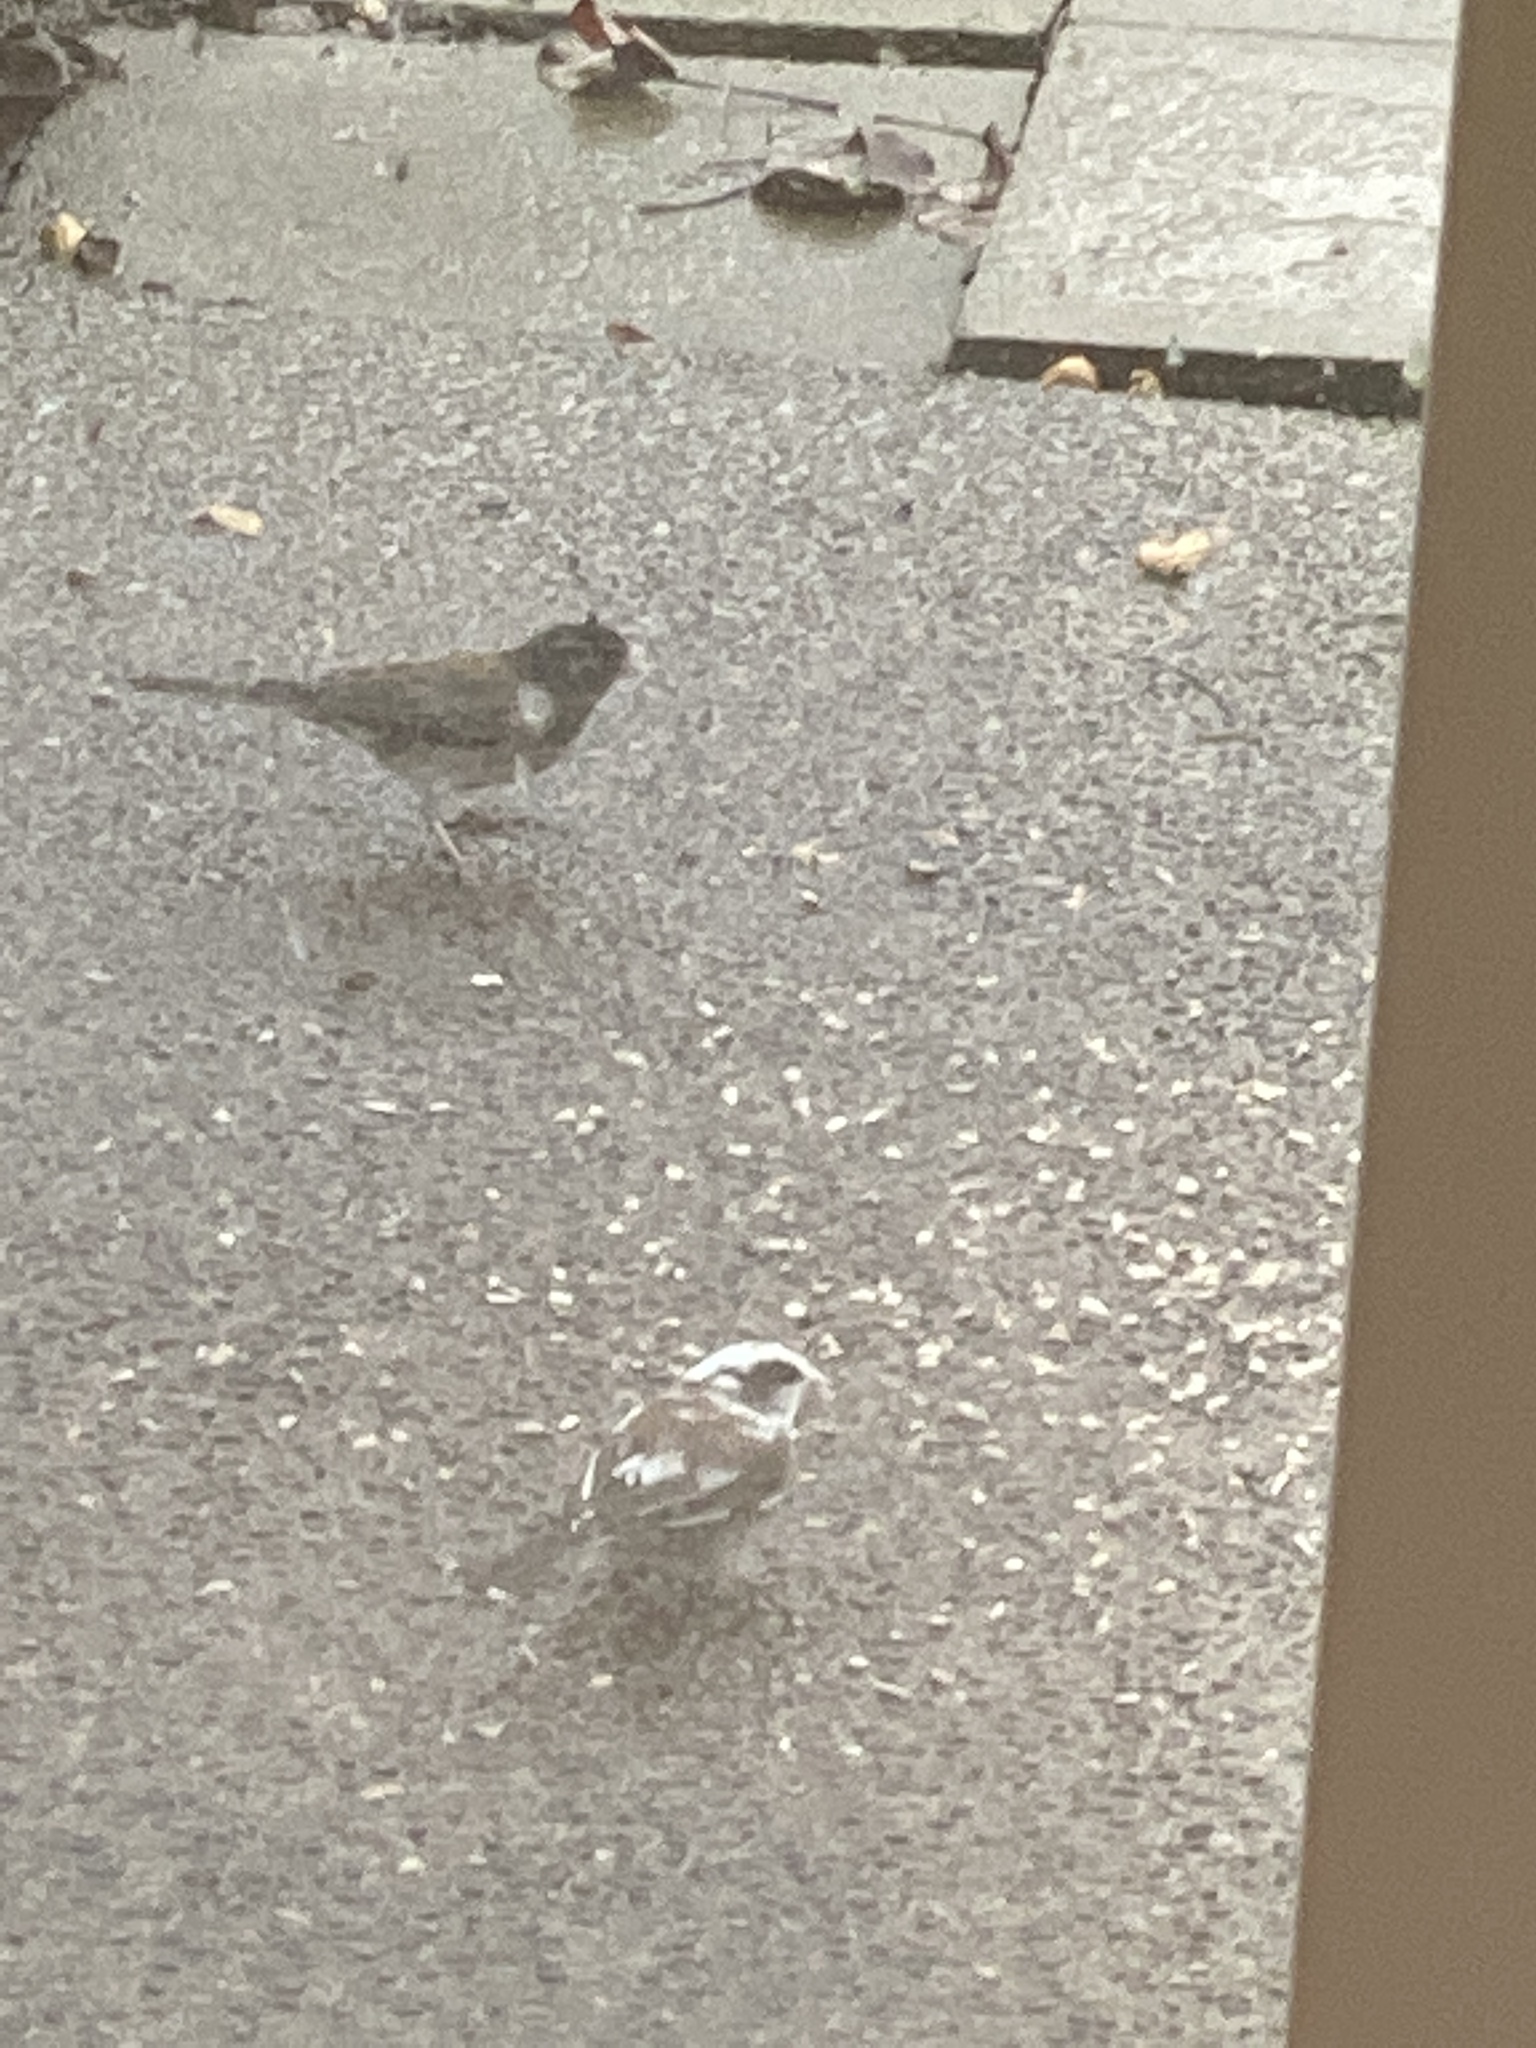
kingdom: Animalia
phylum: Chordata
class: Aves
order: Passeriformes
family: Passerellidae
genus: Junco
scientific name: Junco hyemalis
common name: Dark-eyed junco
